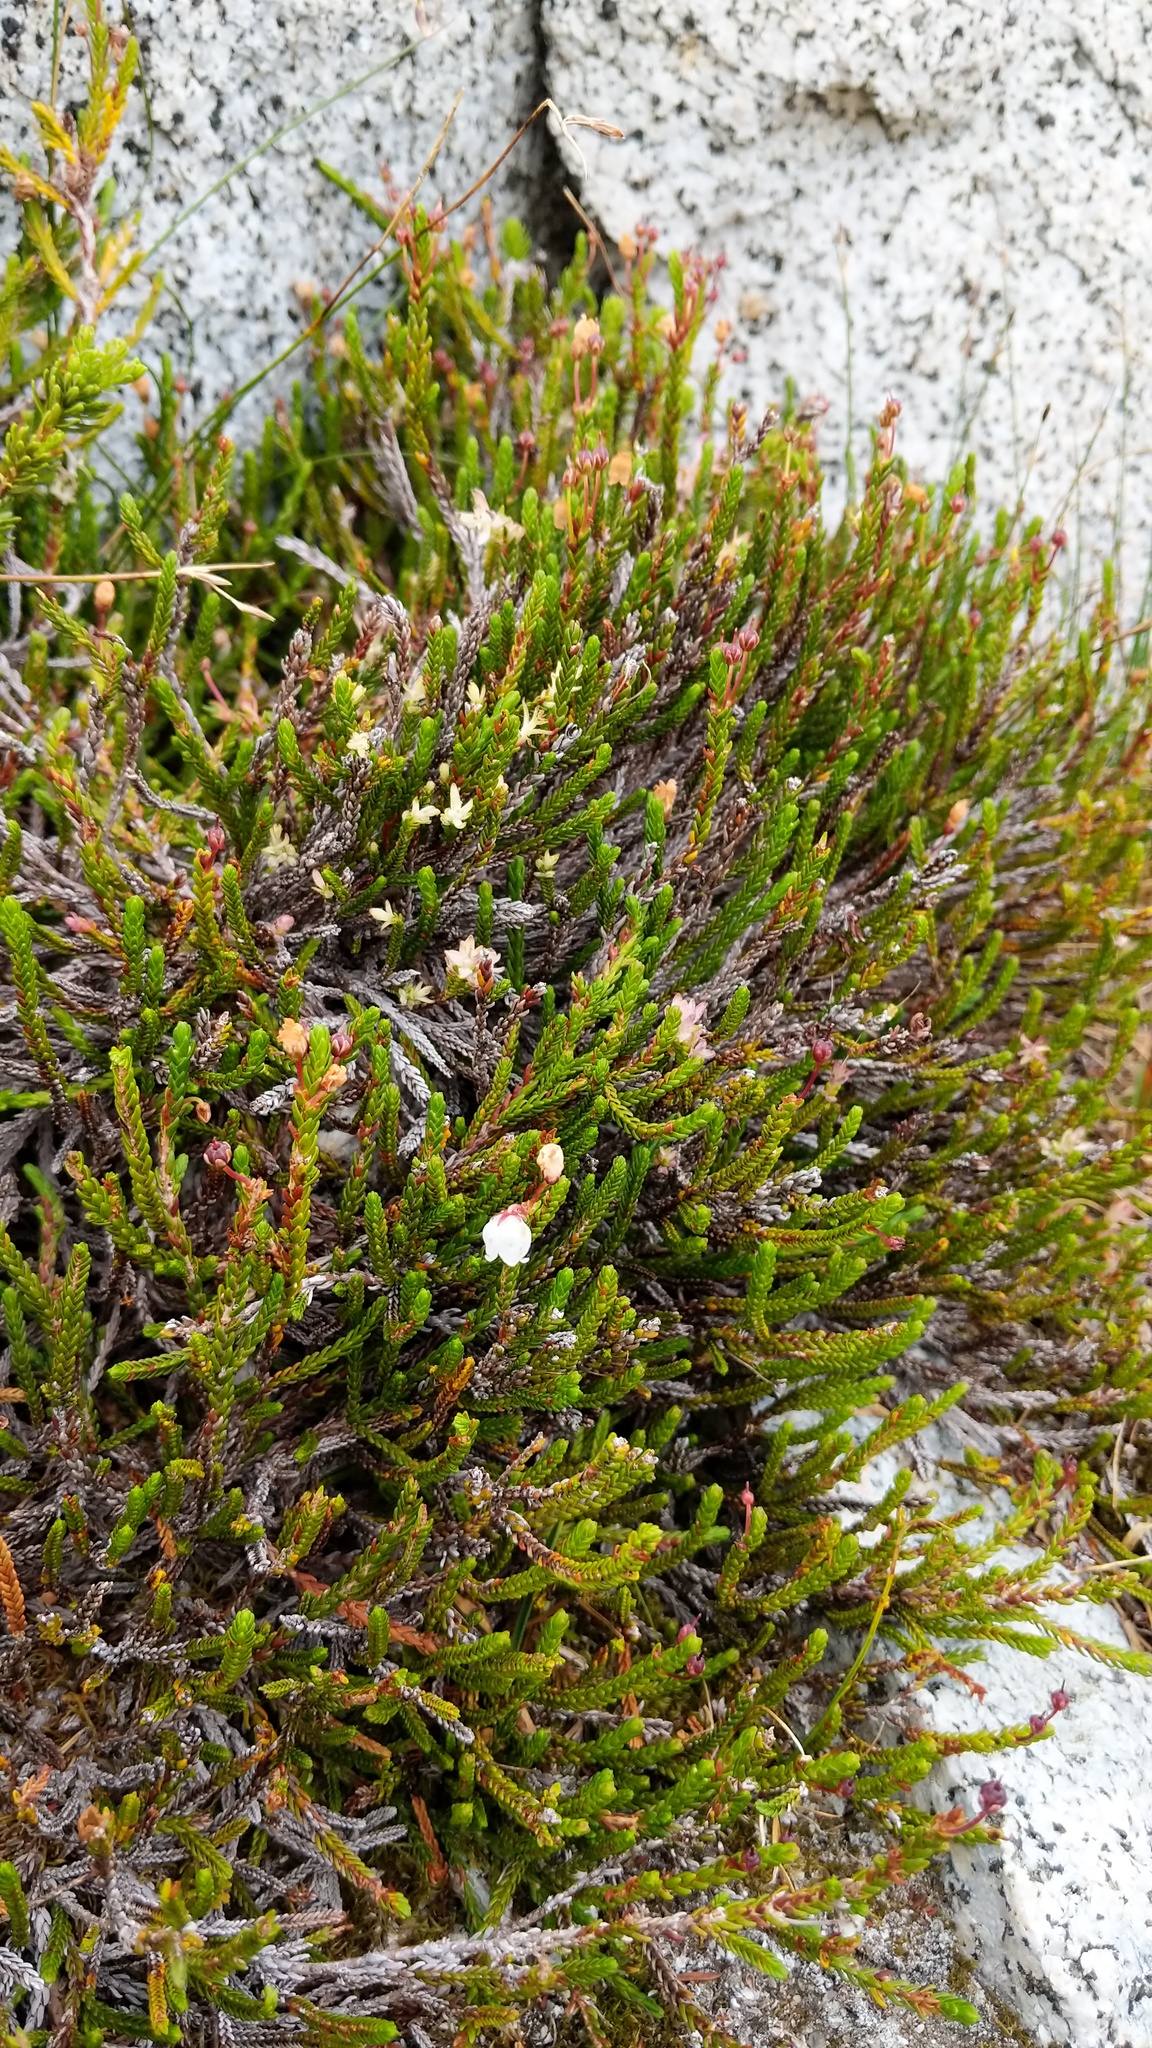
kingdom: Fungi
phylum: Basidiomycota
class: Exobasidiomycetes
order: Exobasidiales
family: Exobasidiaceae
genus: Exobasidium
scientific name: Exobasidium cassiopes
